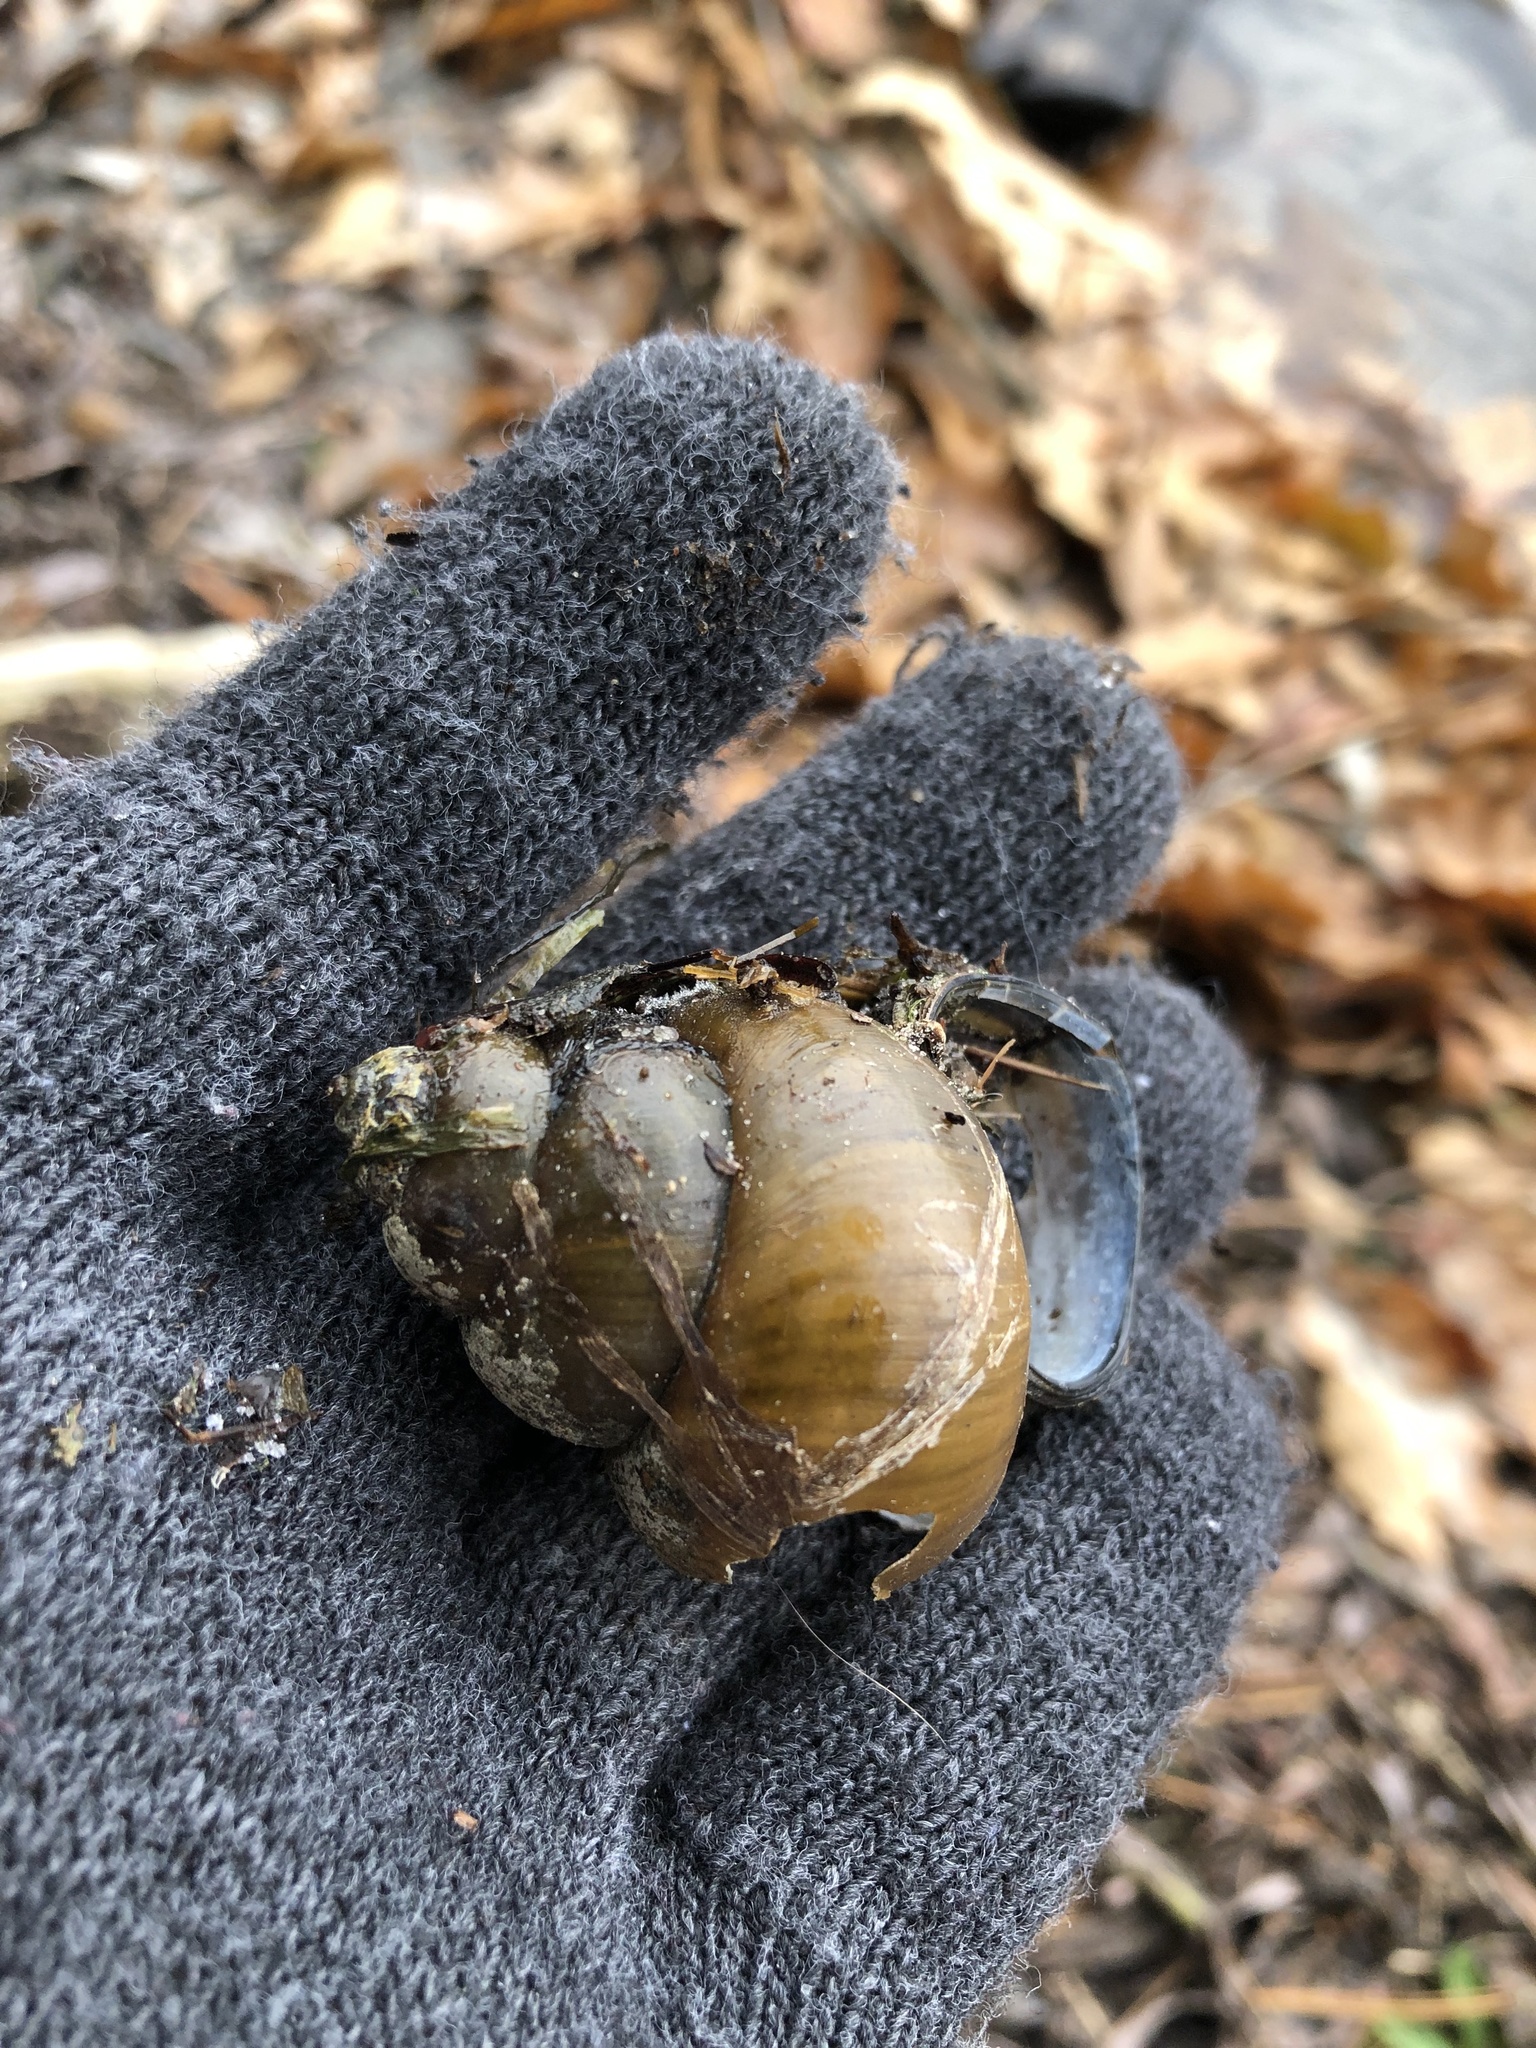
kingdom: Animalia
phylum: Mollusca
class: Gastropoda
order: Architaenioglossa
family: Viviparidae
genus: Cipangopaludina
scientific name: Cipangopaludina chinensis
